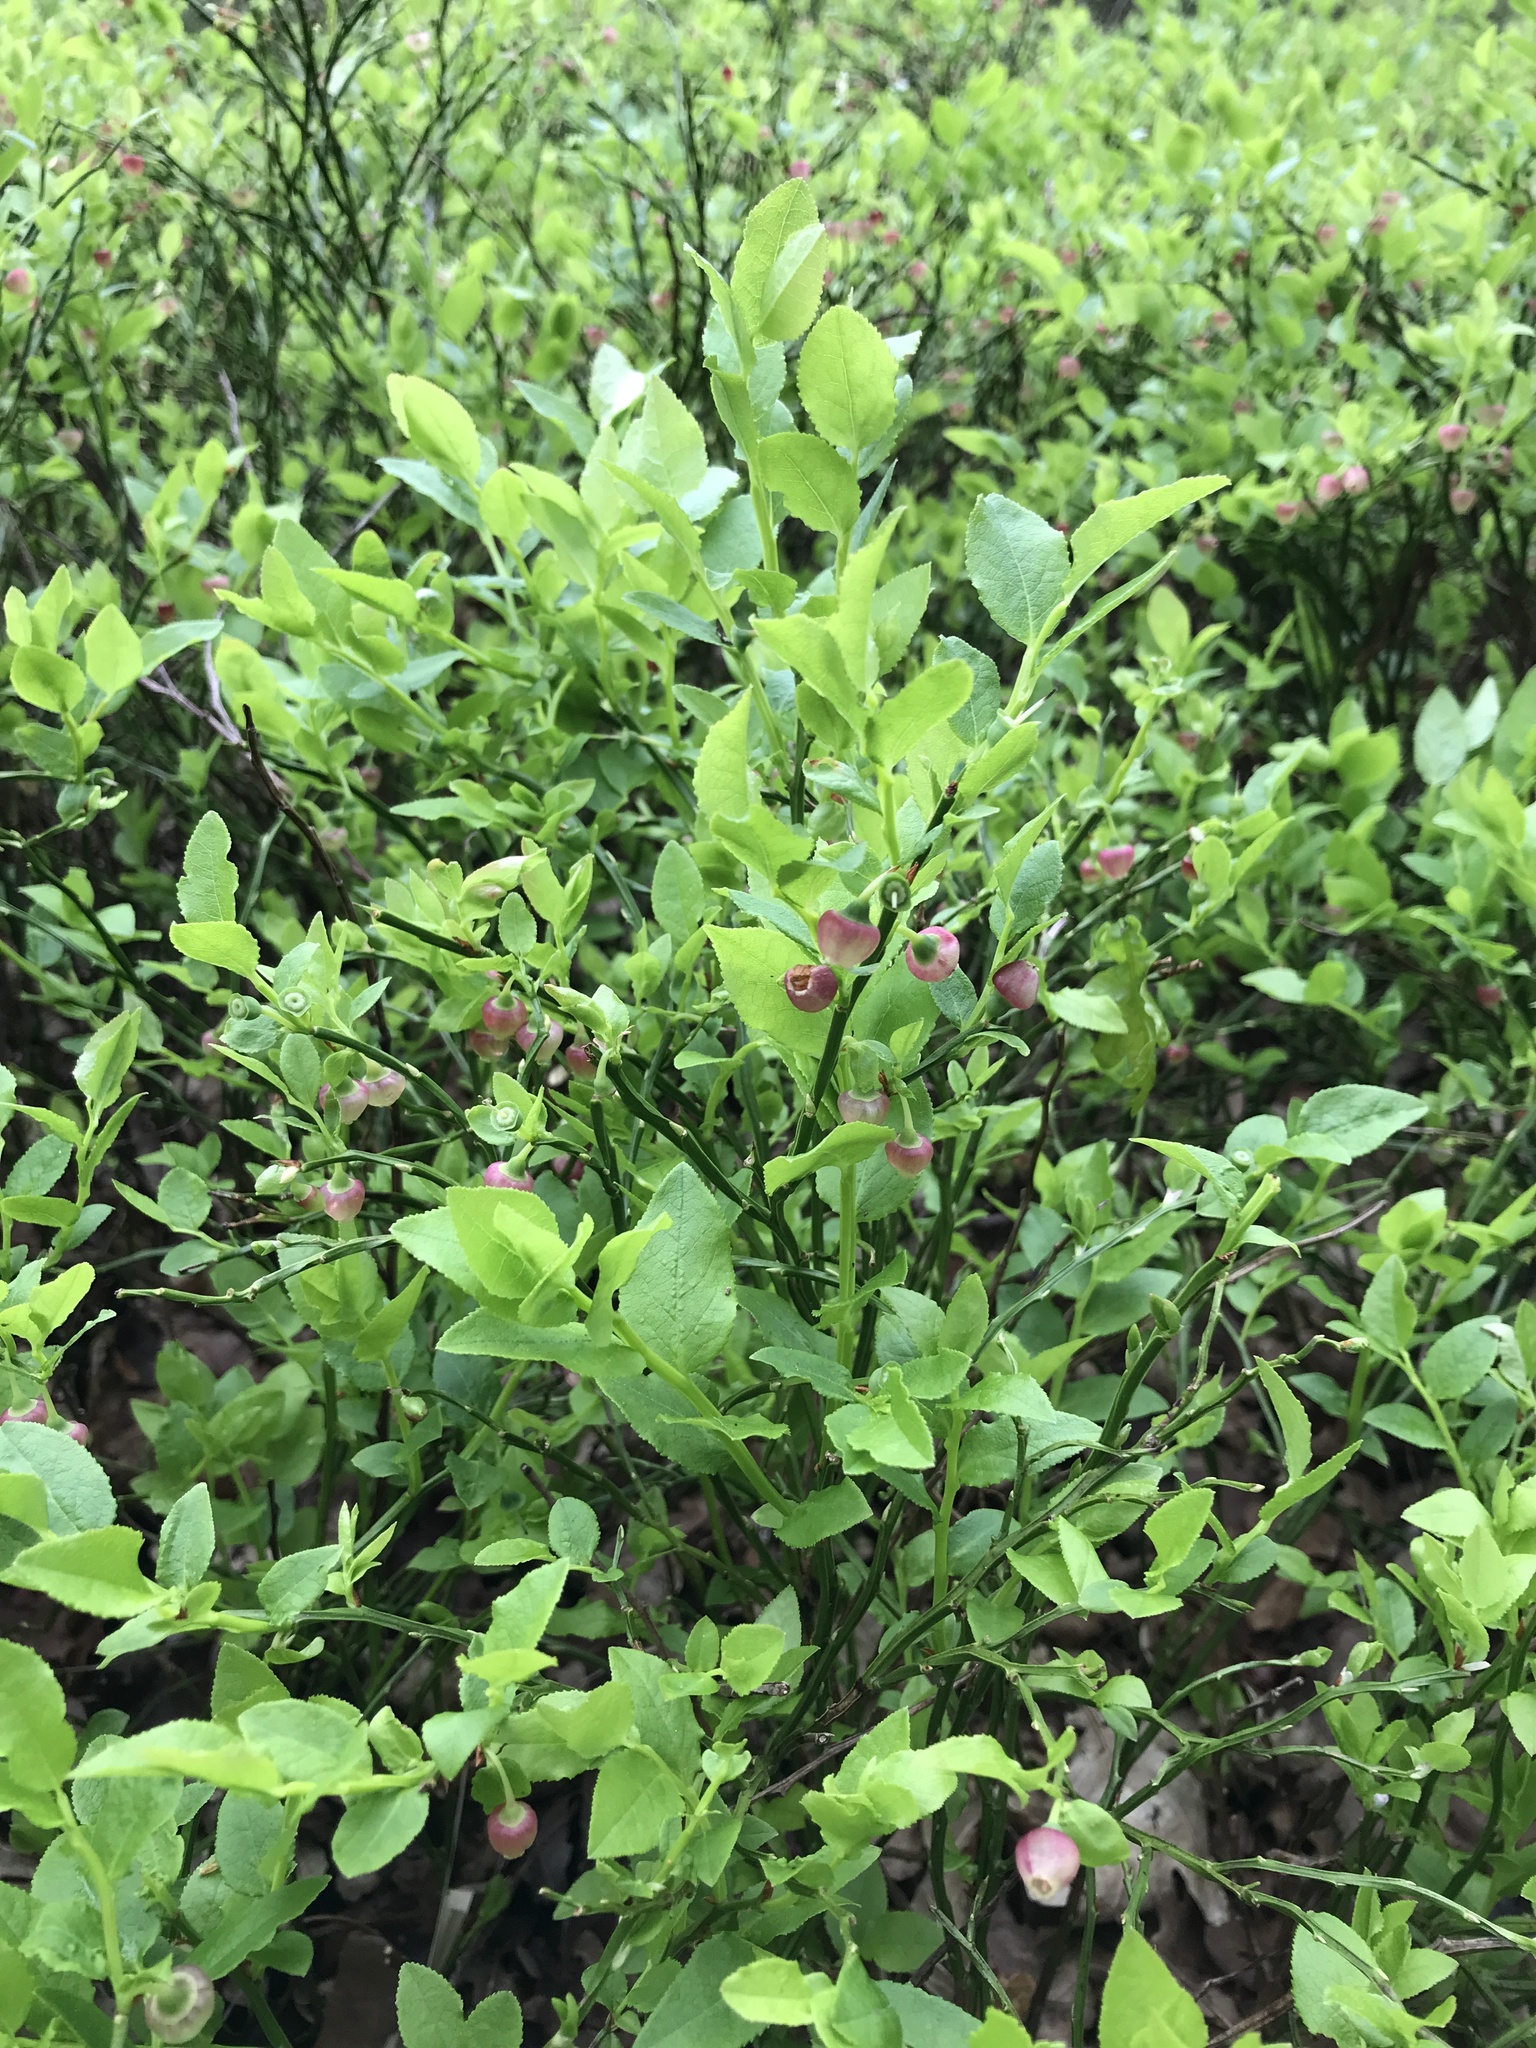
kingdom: Plantae
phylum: Tracheophyta
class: Magnoliopsida
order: Ericales
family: Ericaceae
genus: Vaccinium
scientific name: Vaccinium myrtillus
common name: Bilberry
